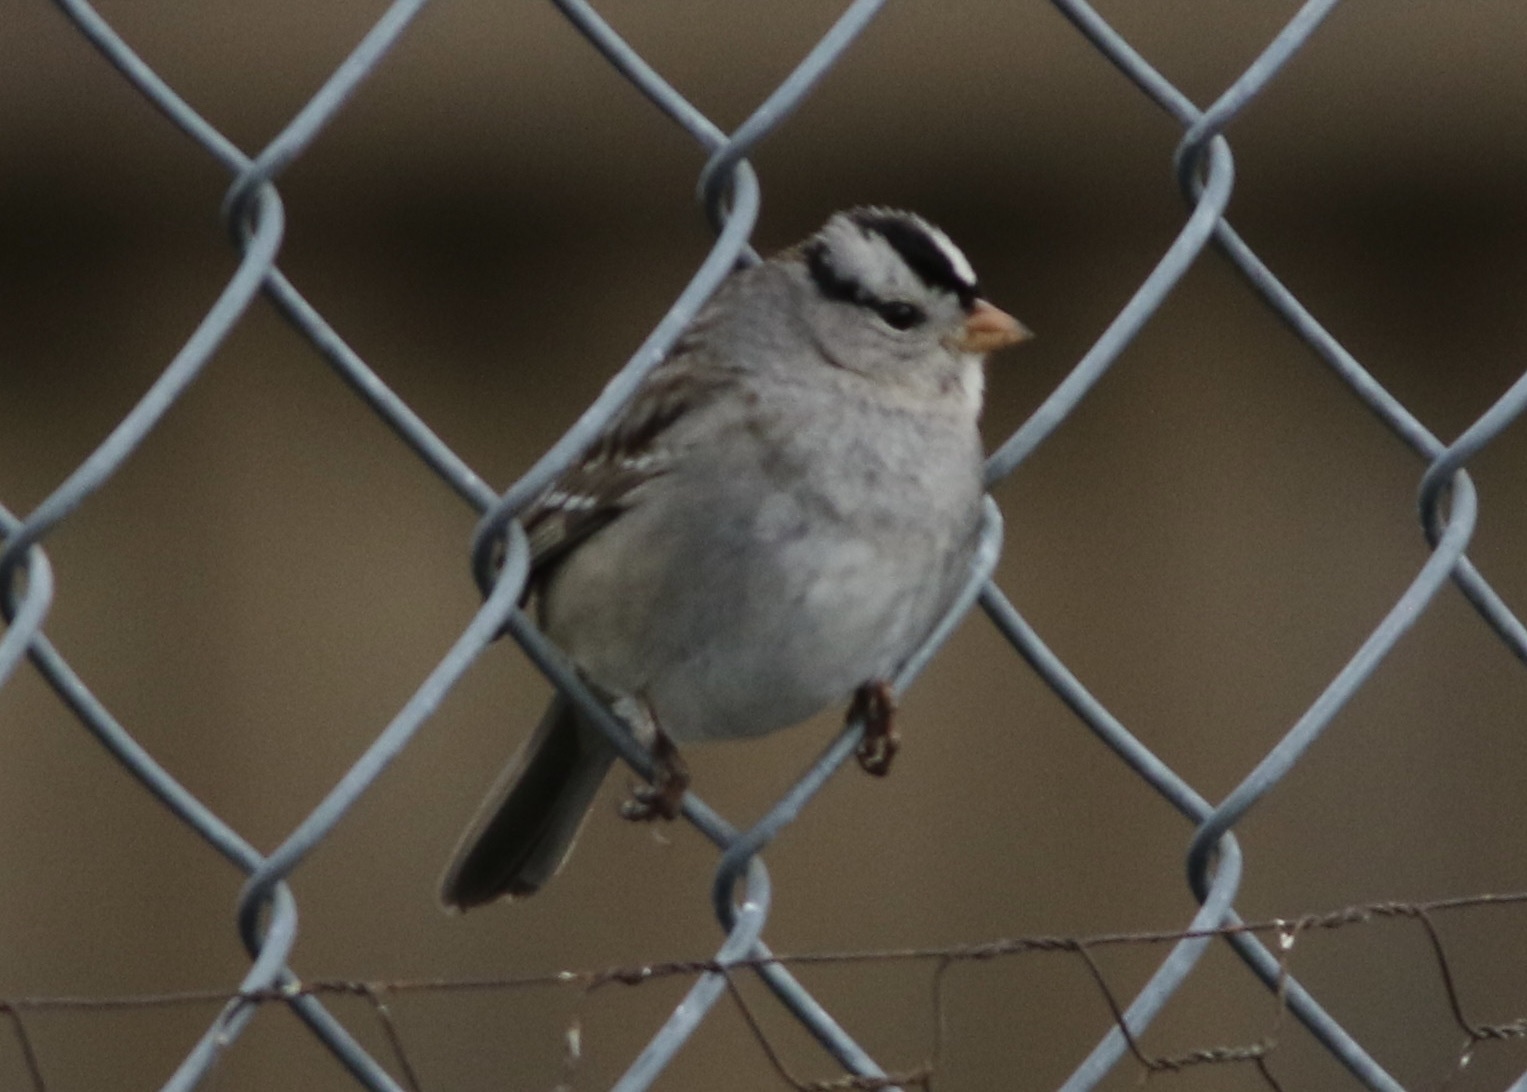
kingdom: Animalia
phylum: Chordata
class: Aves
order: Passeriformes
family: Passerellidae
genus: Zonotrichia
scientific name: Zonotrichia leucophrys
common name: White-crowned sparrow
